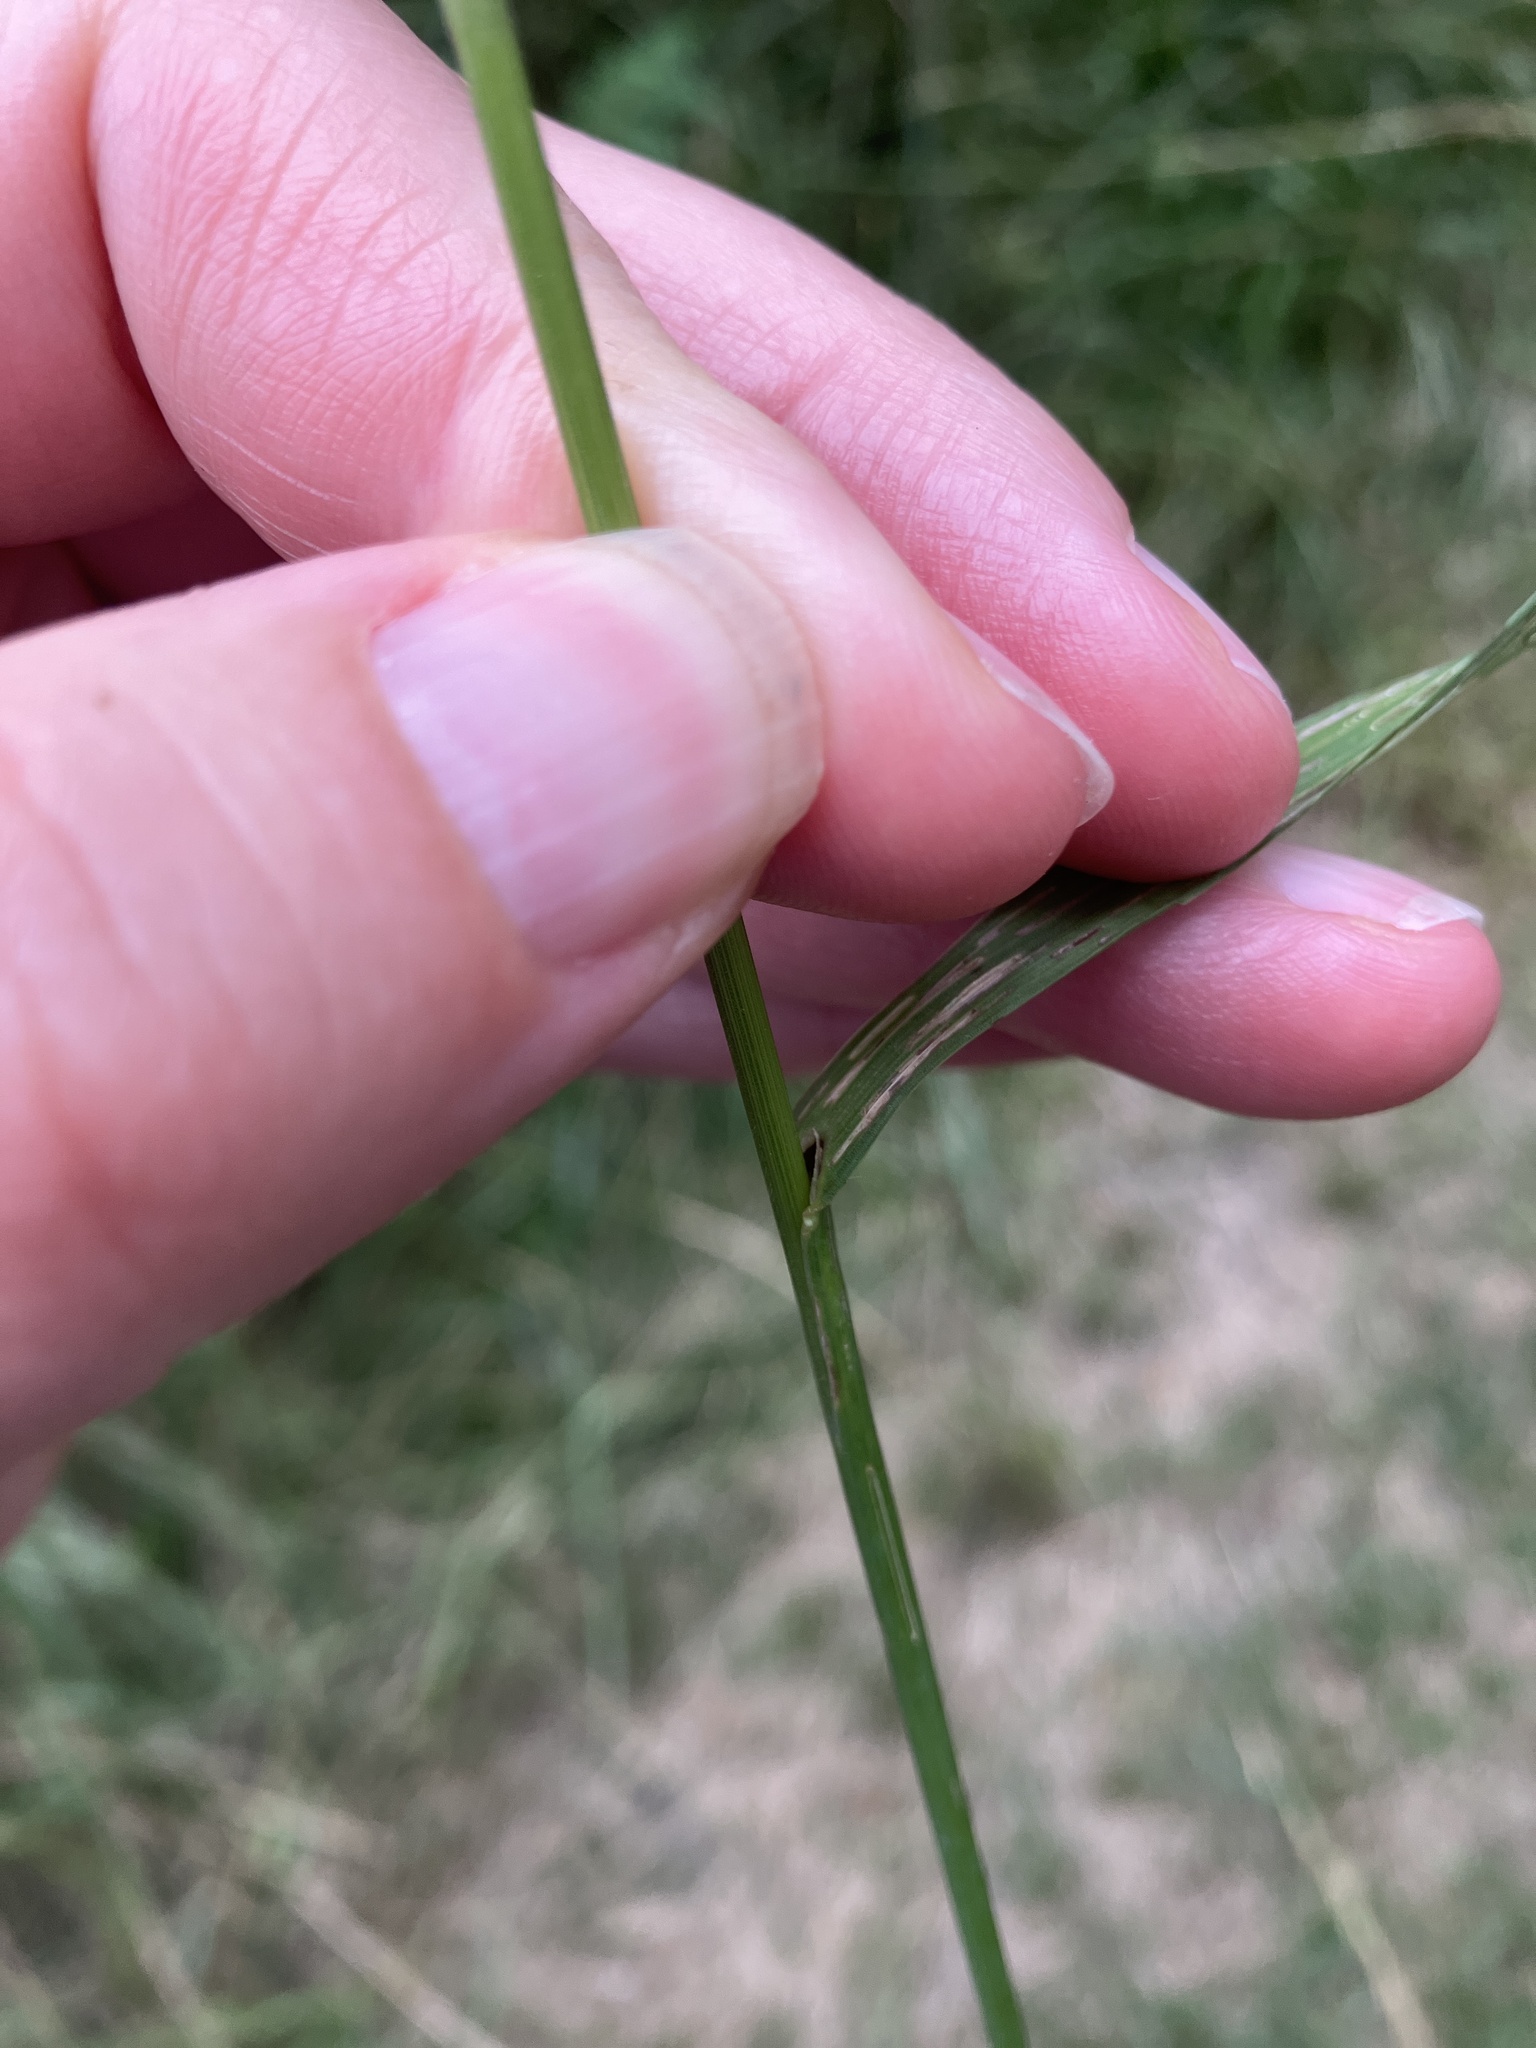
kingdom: Plantae
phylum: Tracheophyta
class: Liliopsida
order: Poales
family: Poaceae
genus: Bromus
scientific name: Bromus inermis
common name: Smooth brome
